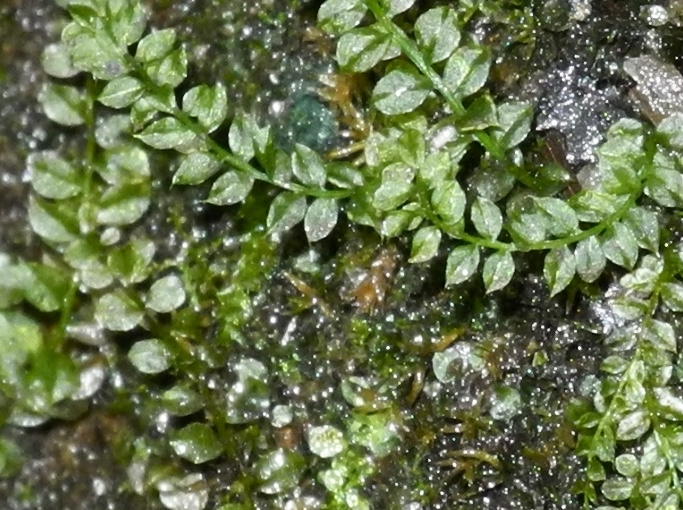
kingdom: Plantae
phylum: Bryophyta
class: Bryopsida
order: Bryales
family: Mniaceae
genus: Plagiomnium
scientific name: Plagiomnium ciliare
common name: Toothed leafy moss
